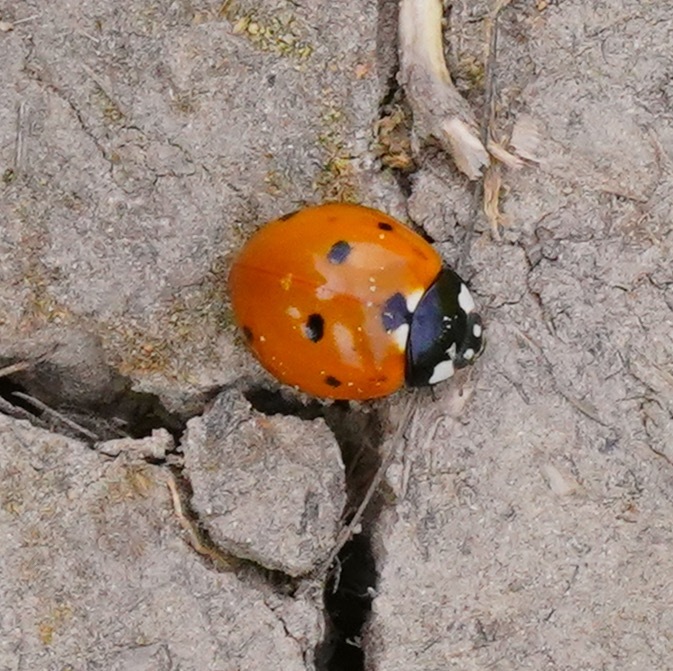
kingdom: Animalia
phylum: Arthropoda
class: Insecta
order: Coleoptera
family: Coccinellidae
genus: Coccinella
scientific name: Coccinella septempunctata
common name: Sevenspotted lady beetle
